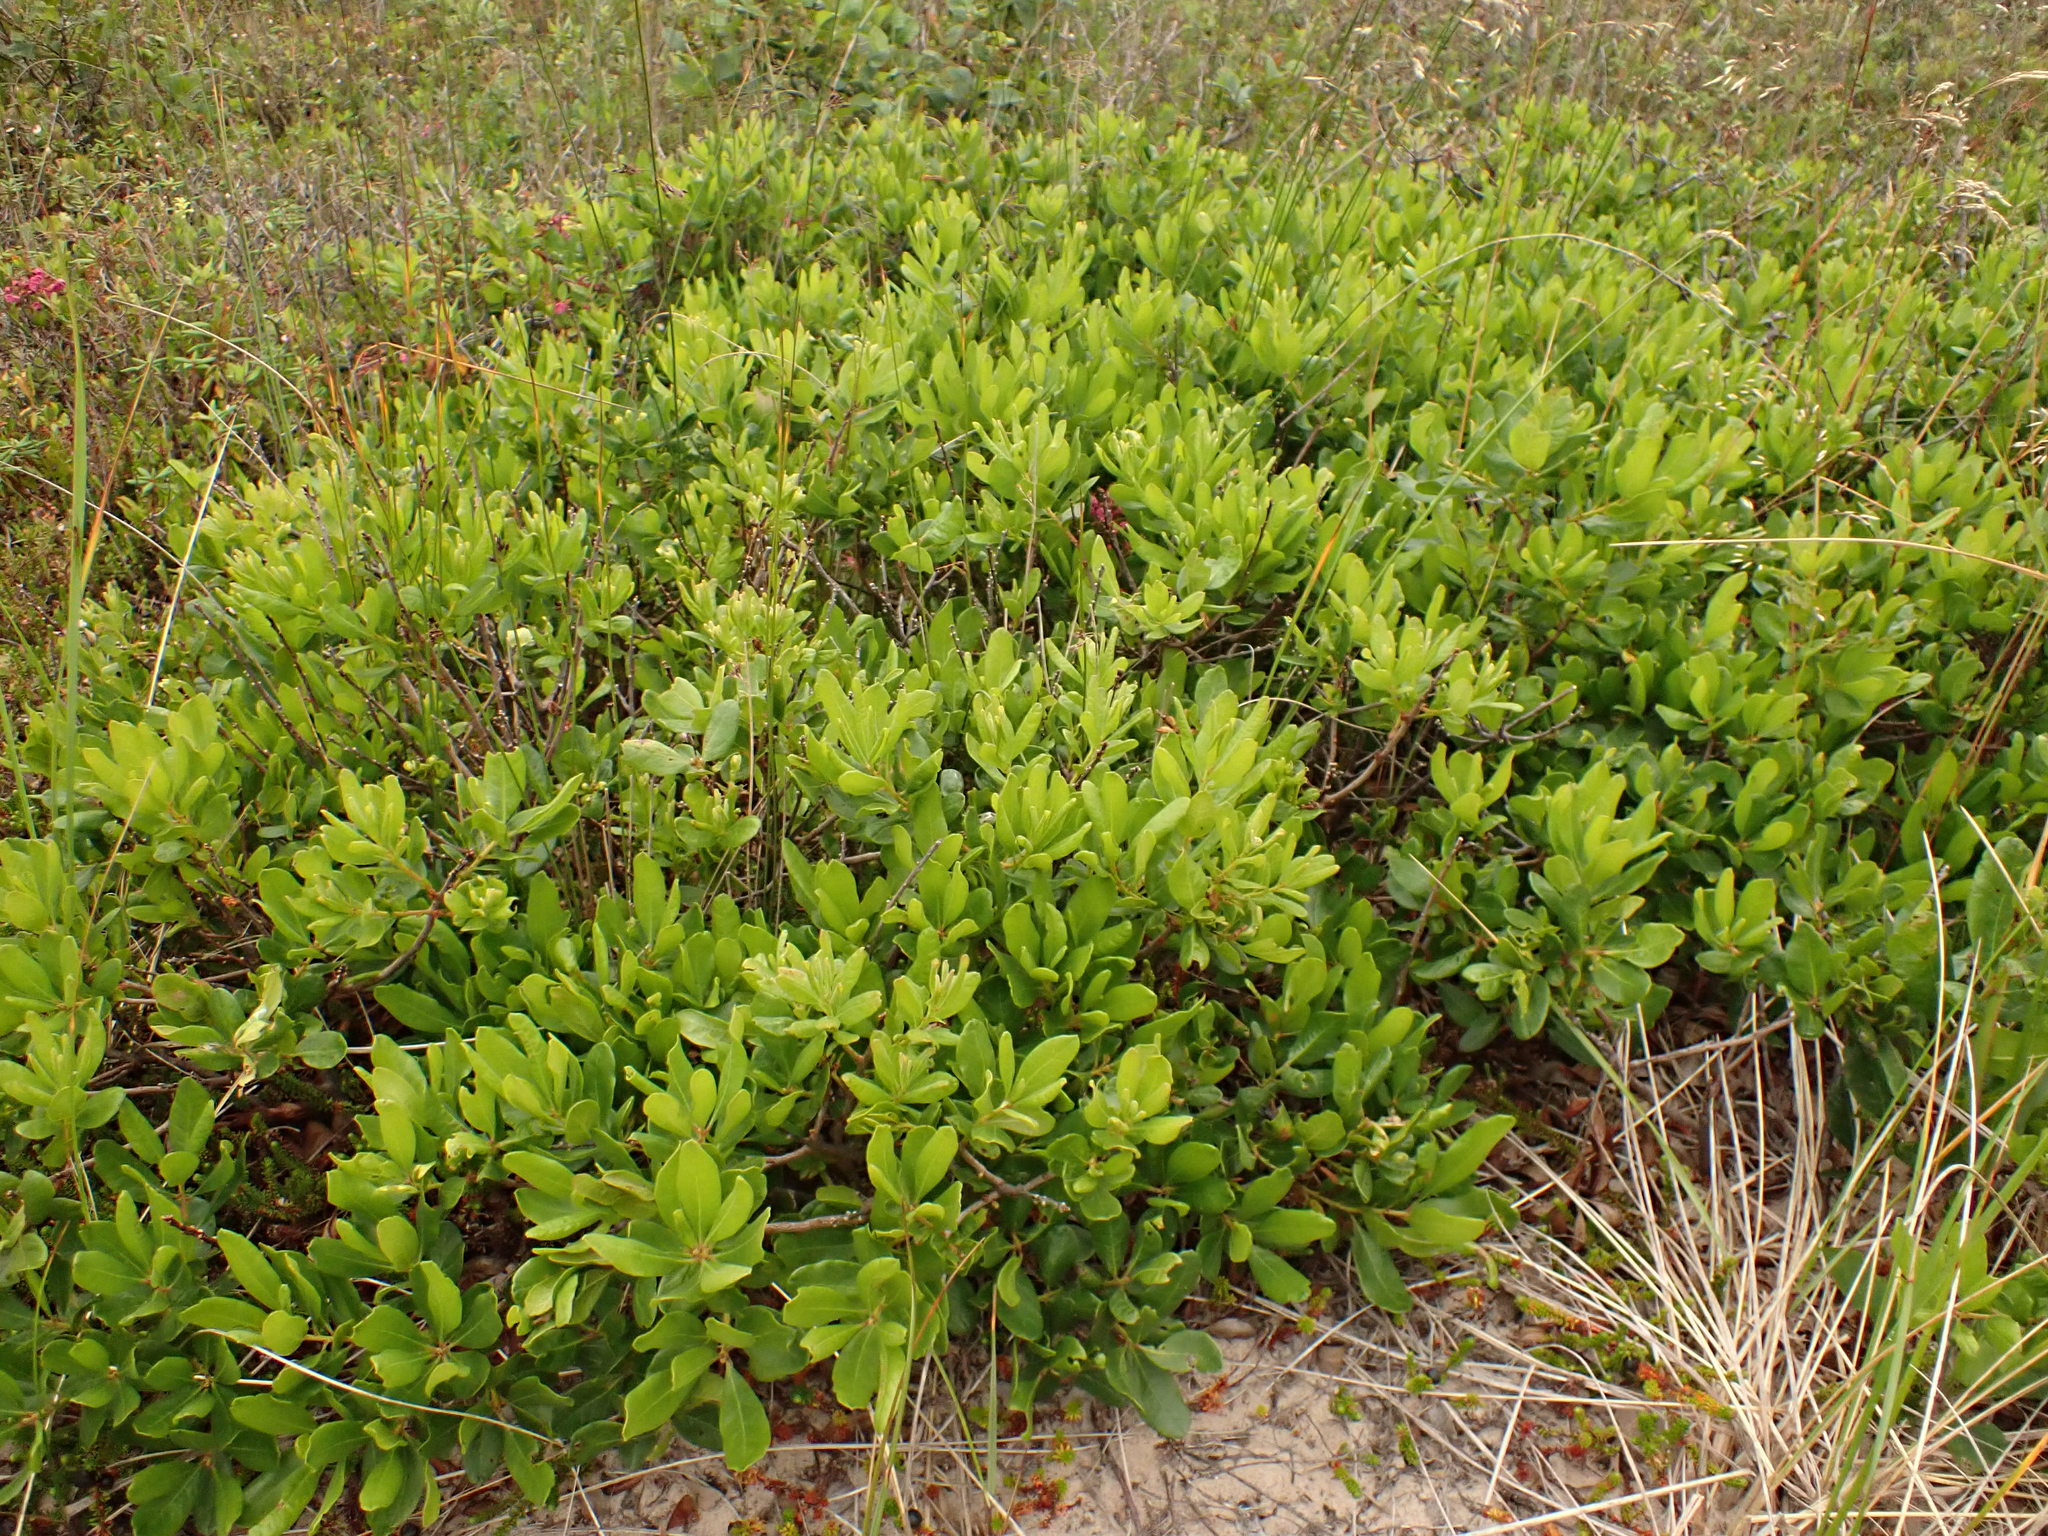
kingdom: Plantae
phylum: Tracheophyta
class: Magnoliopsida
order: Fagales
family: Myricaceae
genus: Morella
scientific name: Morella pensylvanica
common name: Northern bayberry
